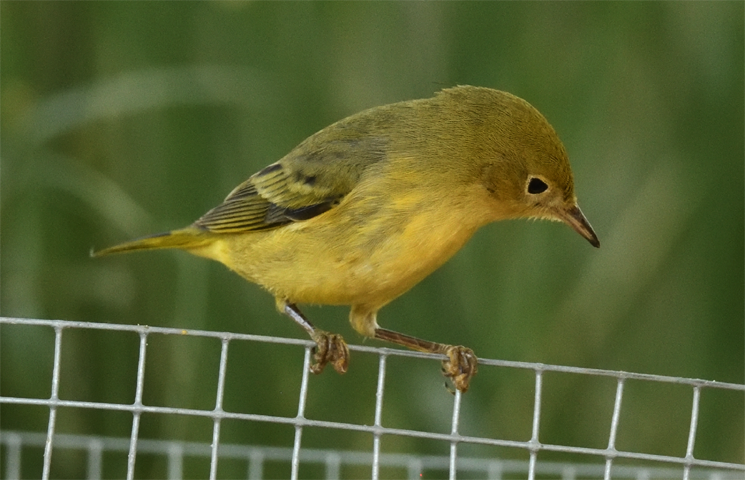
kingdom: Animalia
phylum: Chordata
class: Aves
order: Passeriformes
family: Parulidae
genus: Setophaga
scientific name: Setophaga petechia
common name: Yellow warbler
